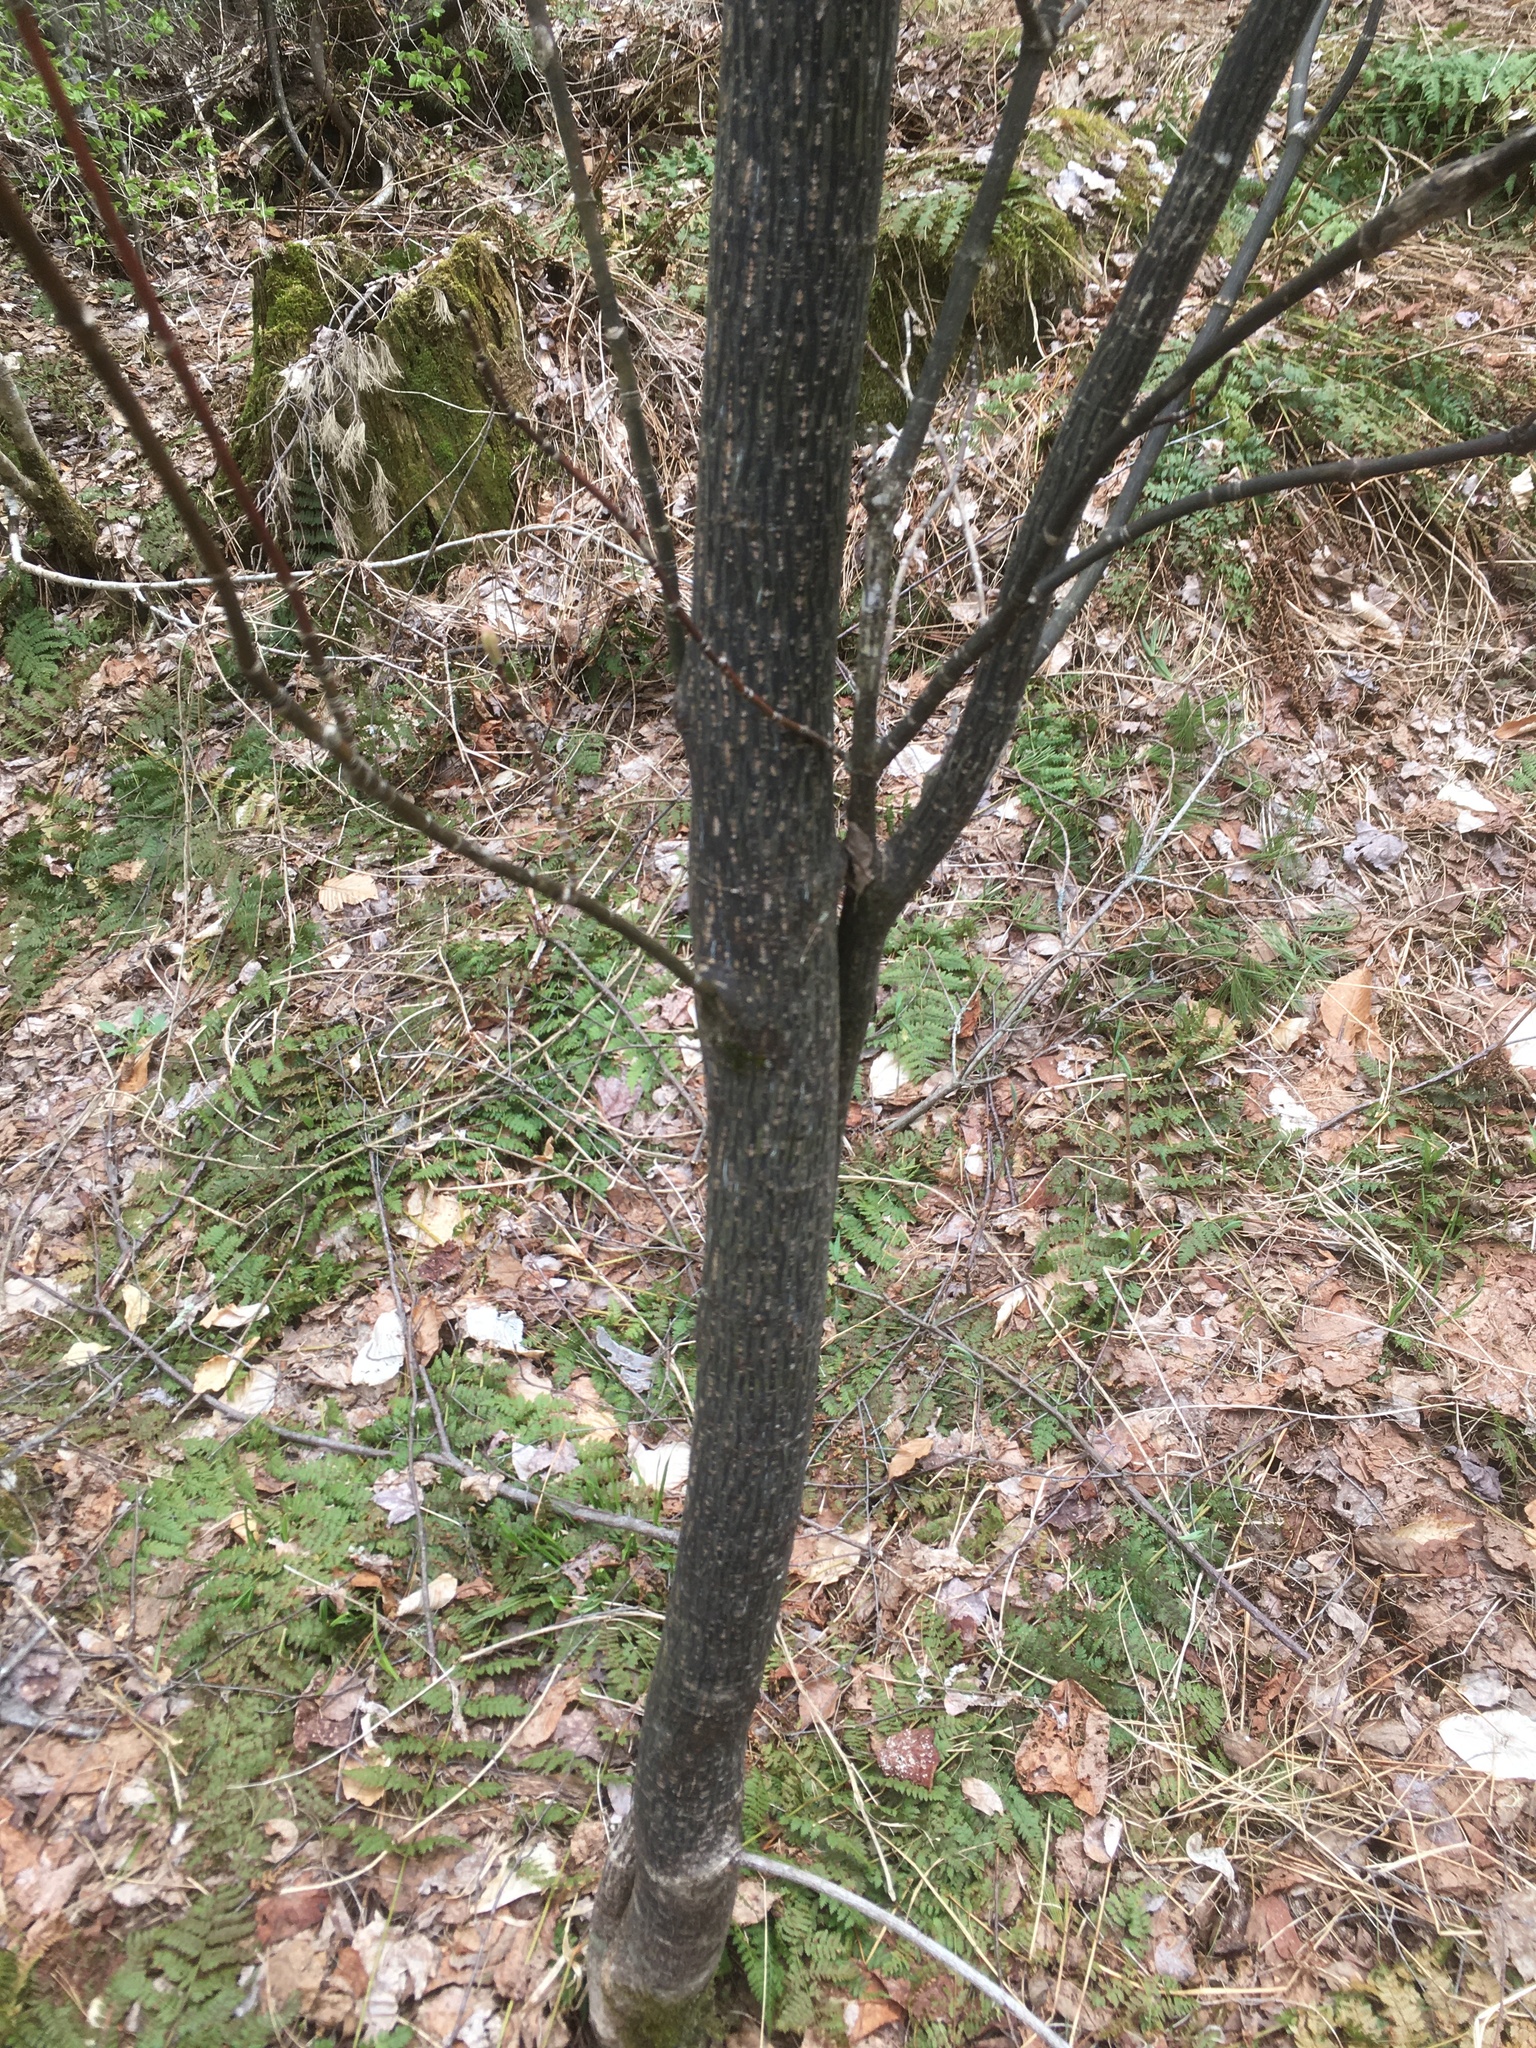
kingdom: Plantae
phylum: Tracheophyta
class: Magnoliopsida
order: Sapindales
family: Sapindaceae
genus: Acer
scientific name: Acer pensylvanicum
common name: Moosewood
